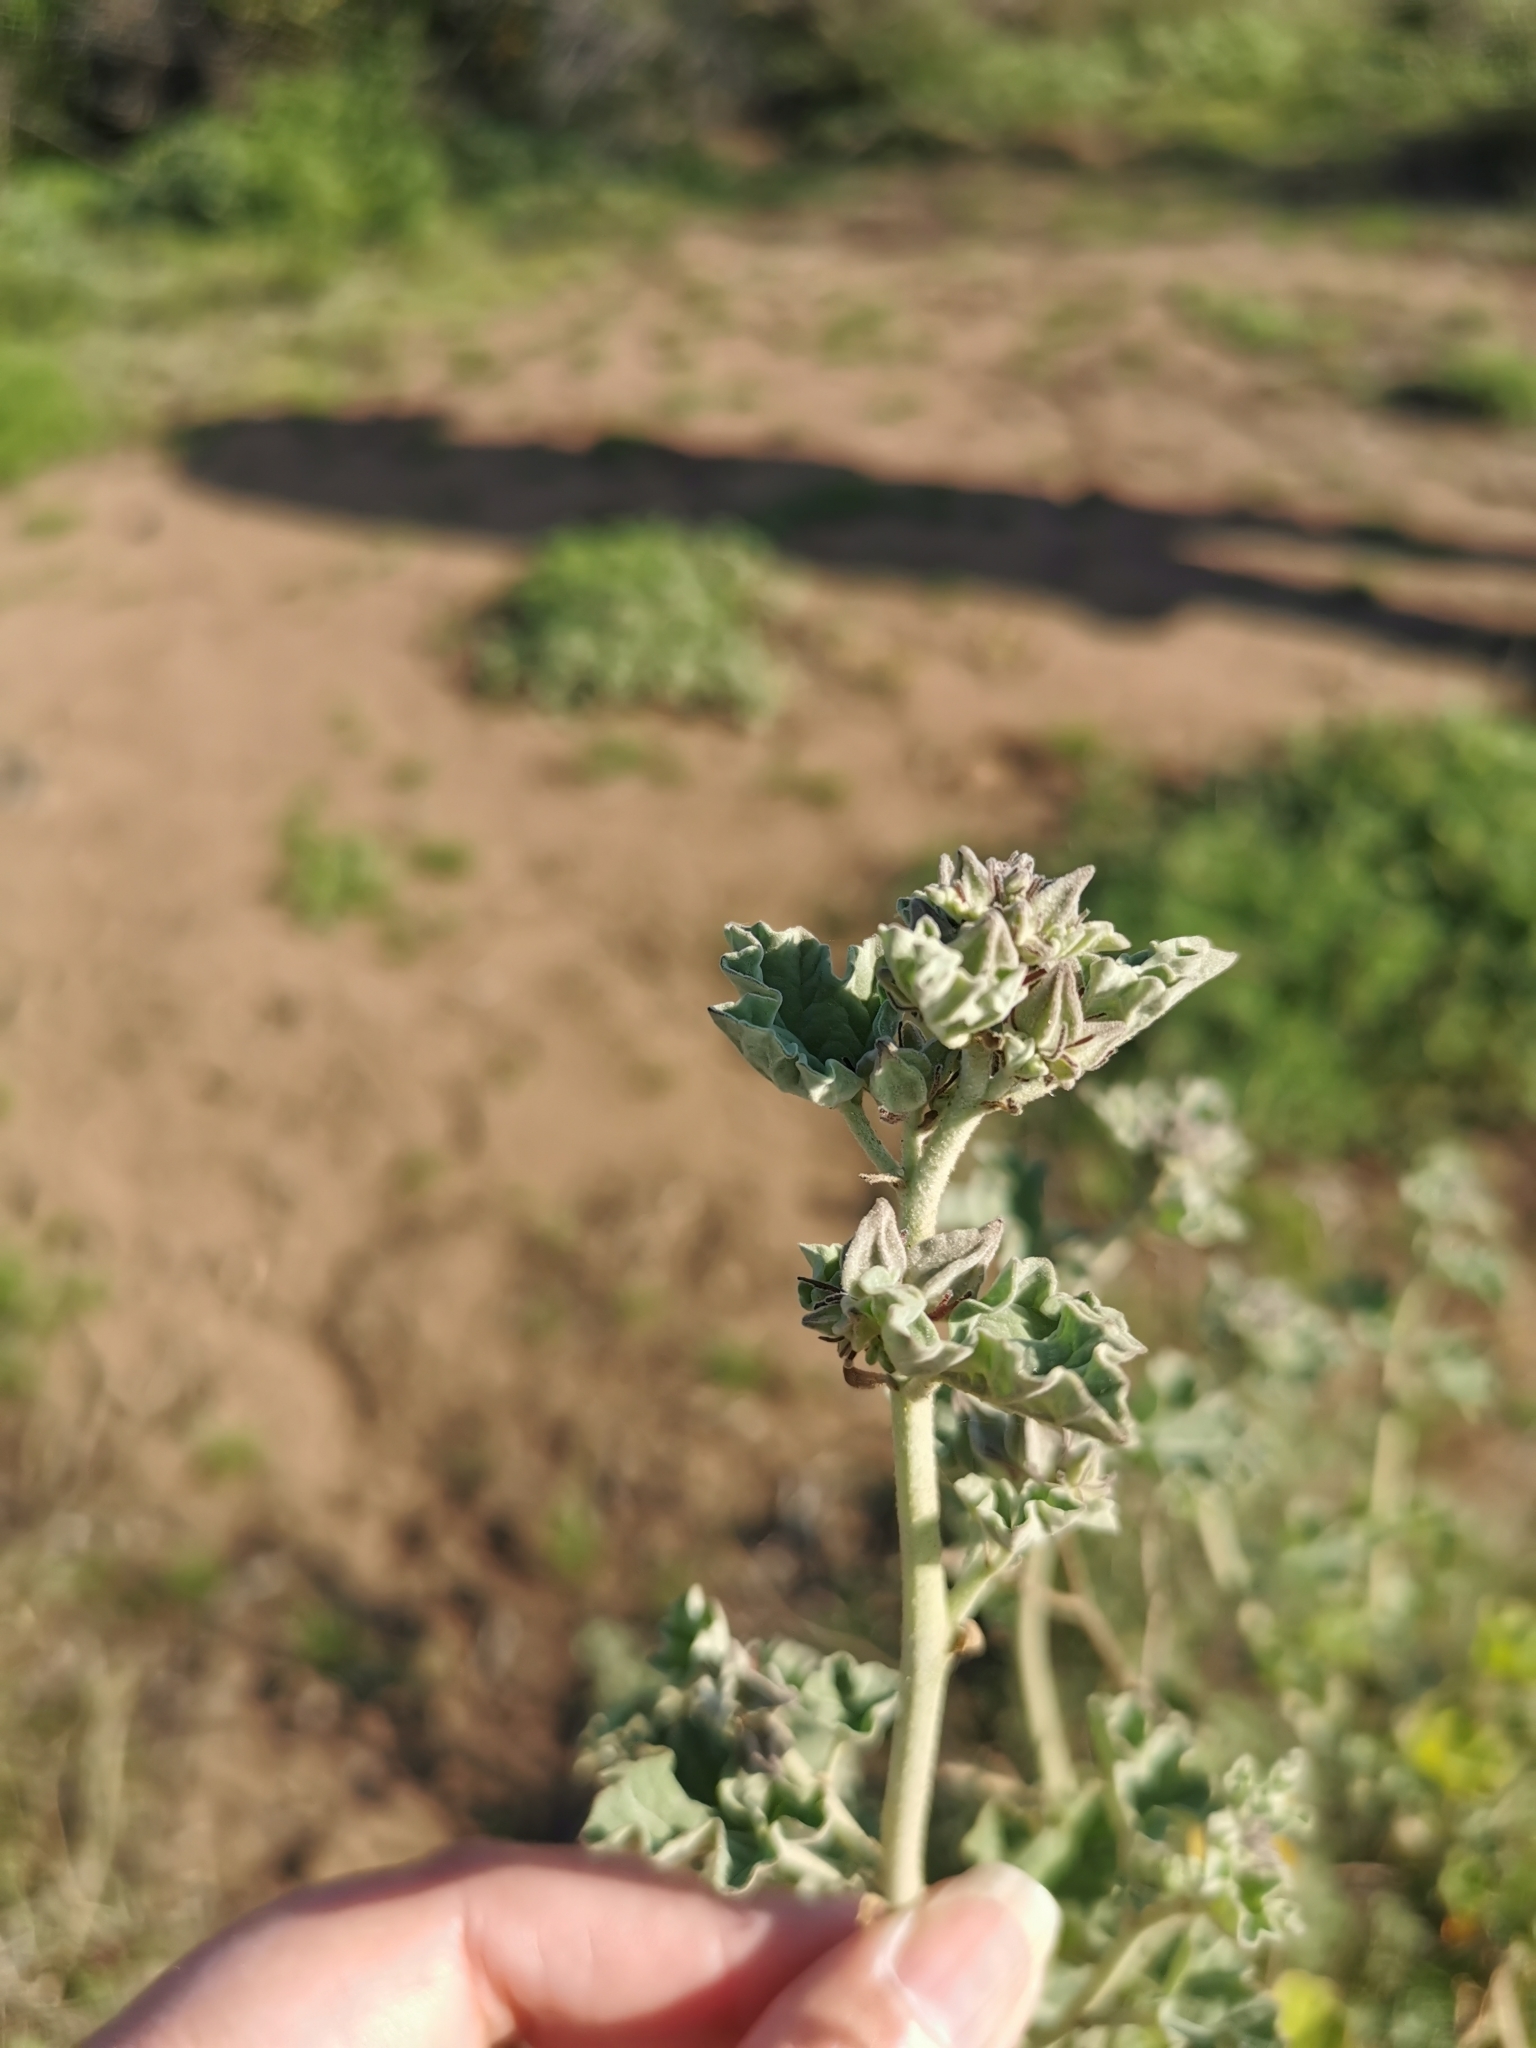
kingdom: Plantae
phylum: Tracheophyta
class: Magnoliopsida
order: Malvales
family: Malvaceae
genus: Sphaeralcea
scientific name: Sphaeralcea obtusiloba
